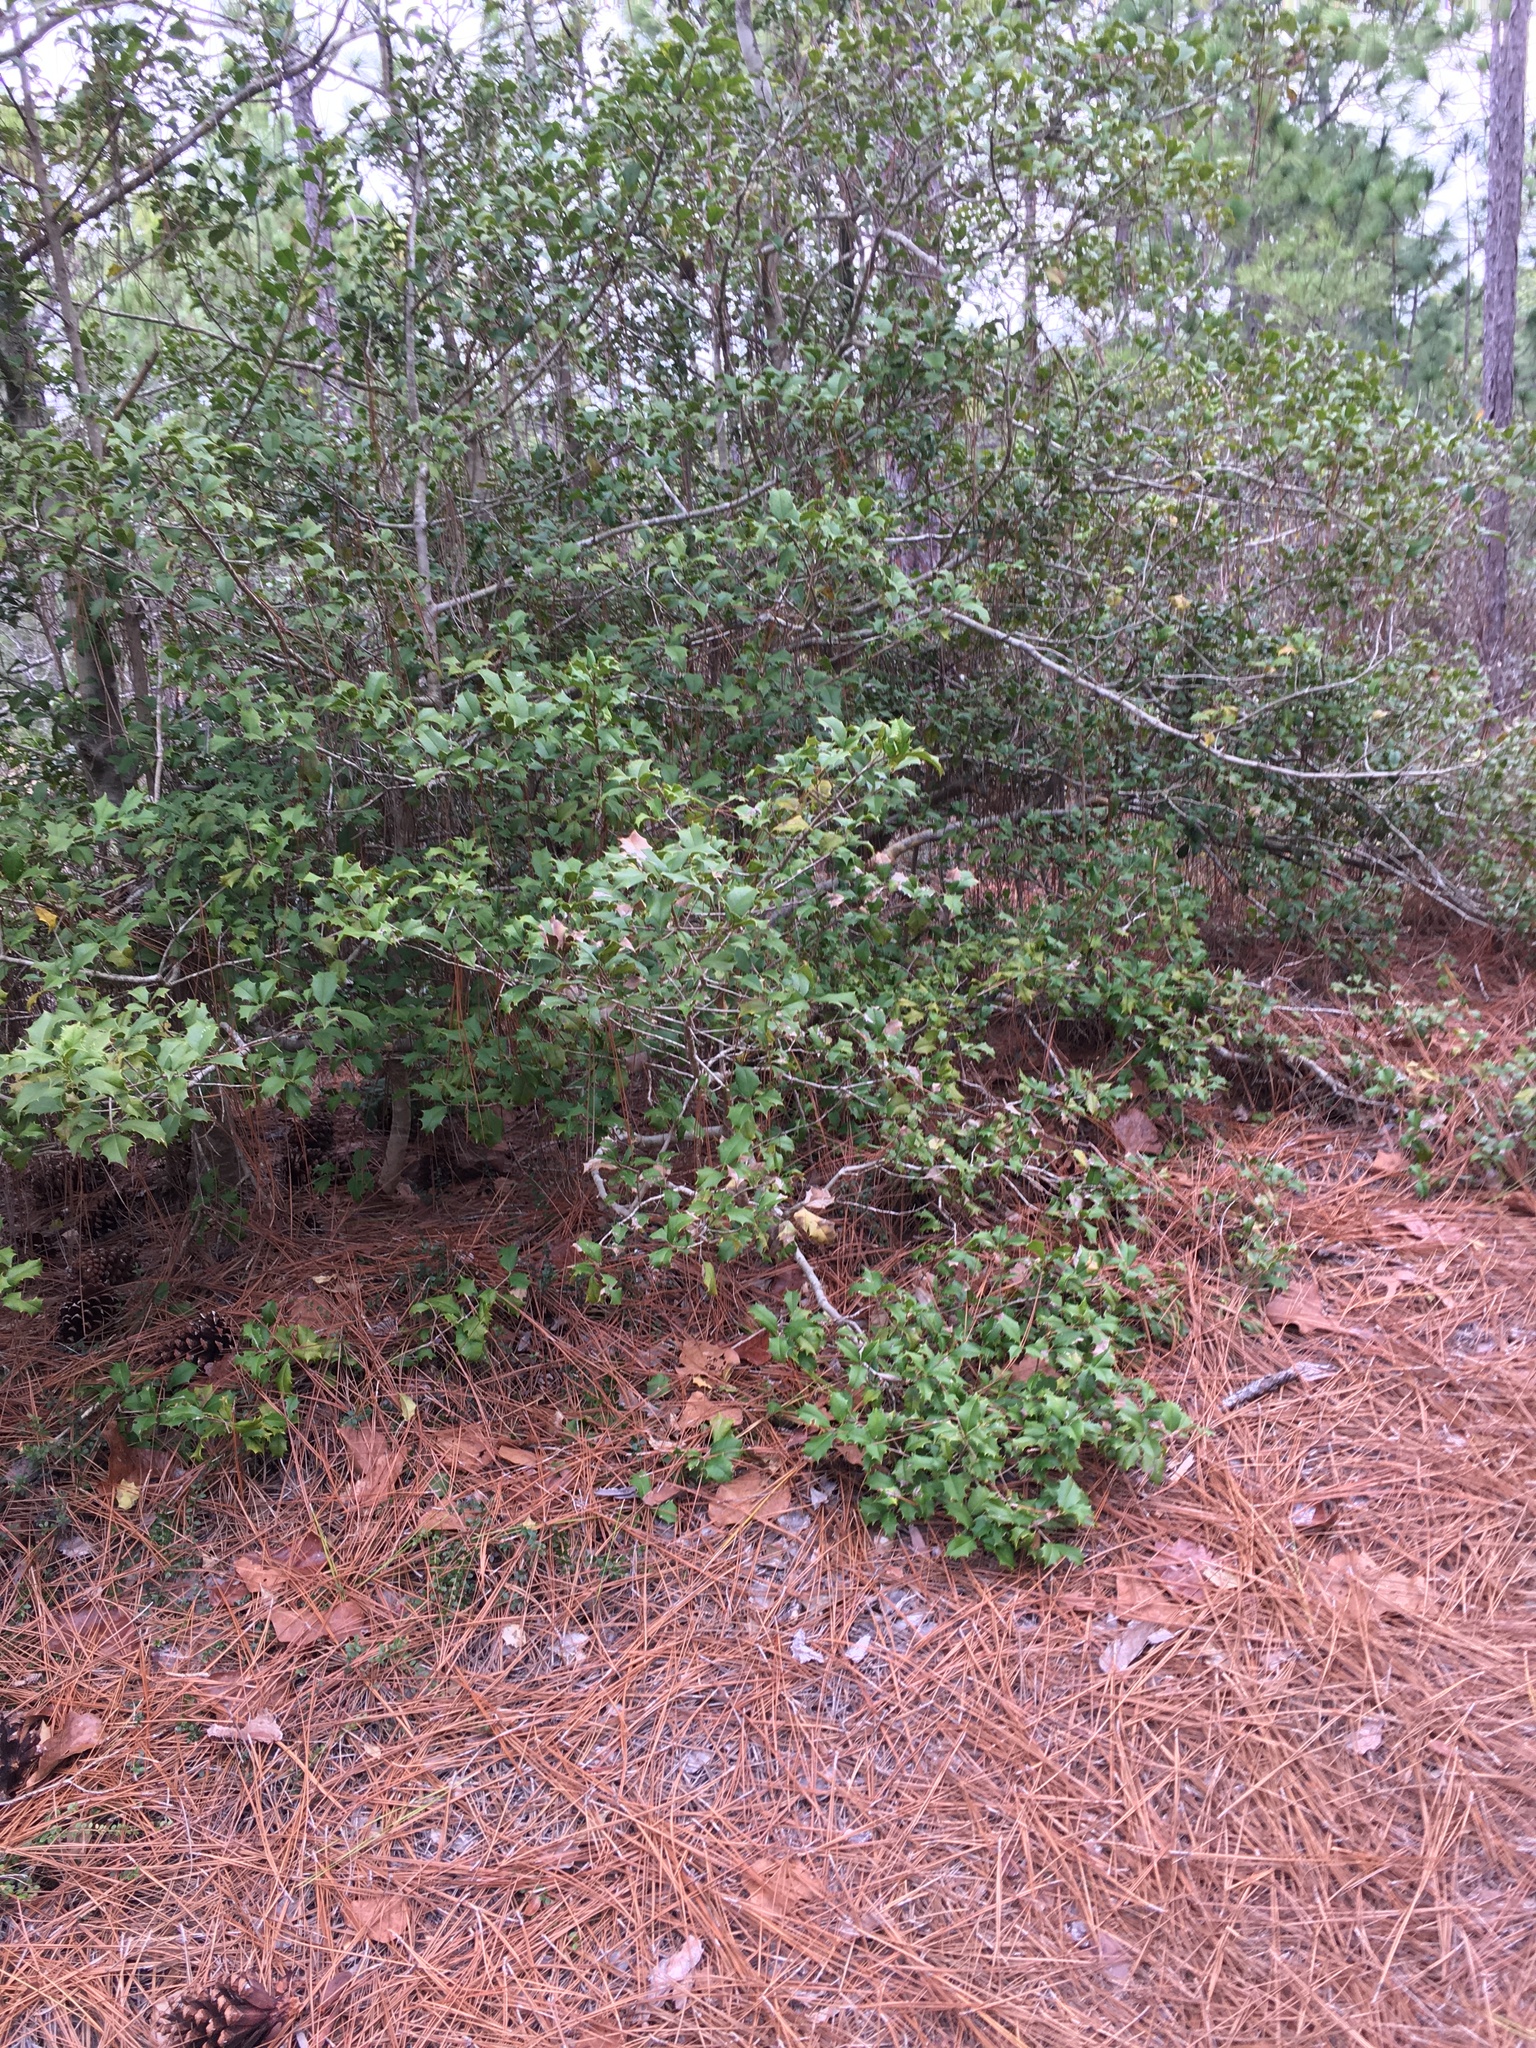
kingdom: Plantae
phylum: Tracheophyta
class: Magnoliopsida
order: Aquifoliales
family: Aquifoliaceae
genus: Ilex
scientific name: Ilex opaca
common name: American holly
